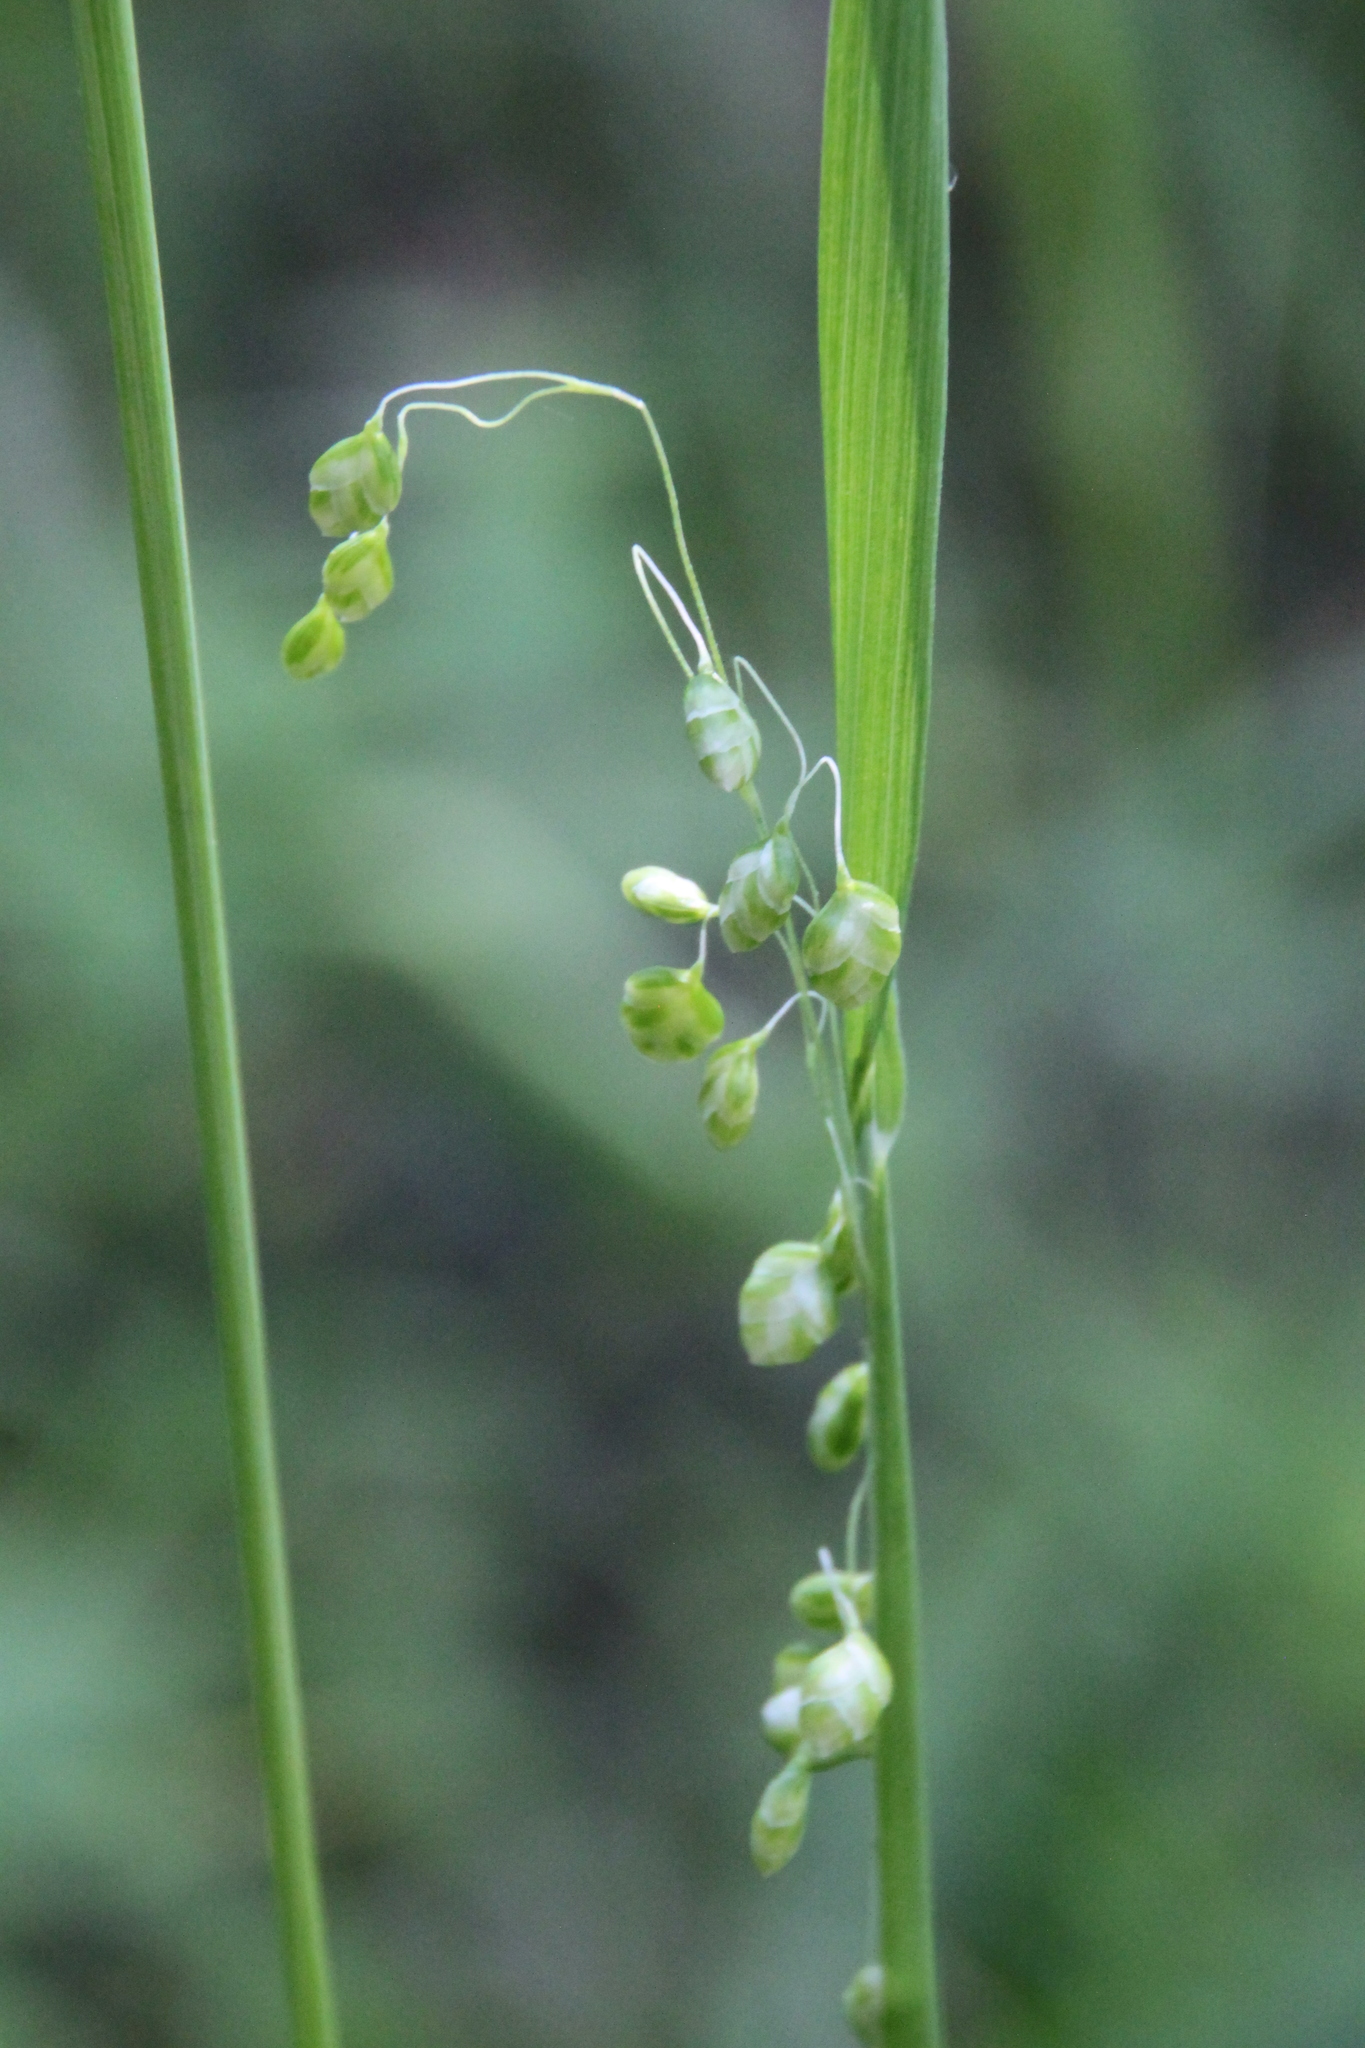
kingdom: Plantae
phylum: Tracheophyta
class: Liliopsida
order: Poales
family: Poaceae
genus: Briza
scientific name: Briza media
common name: Quaking grass
